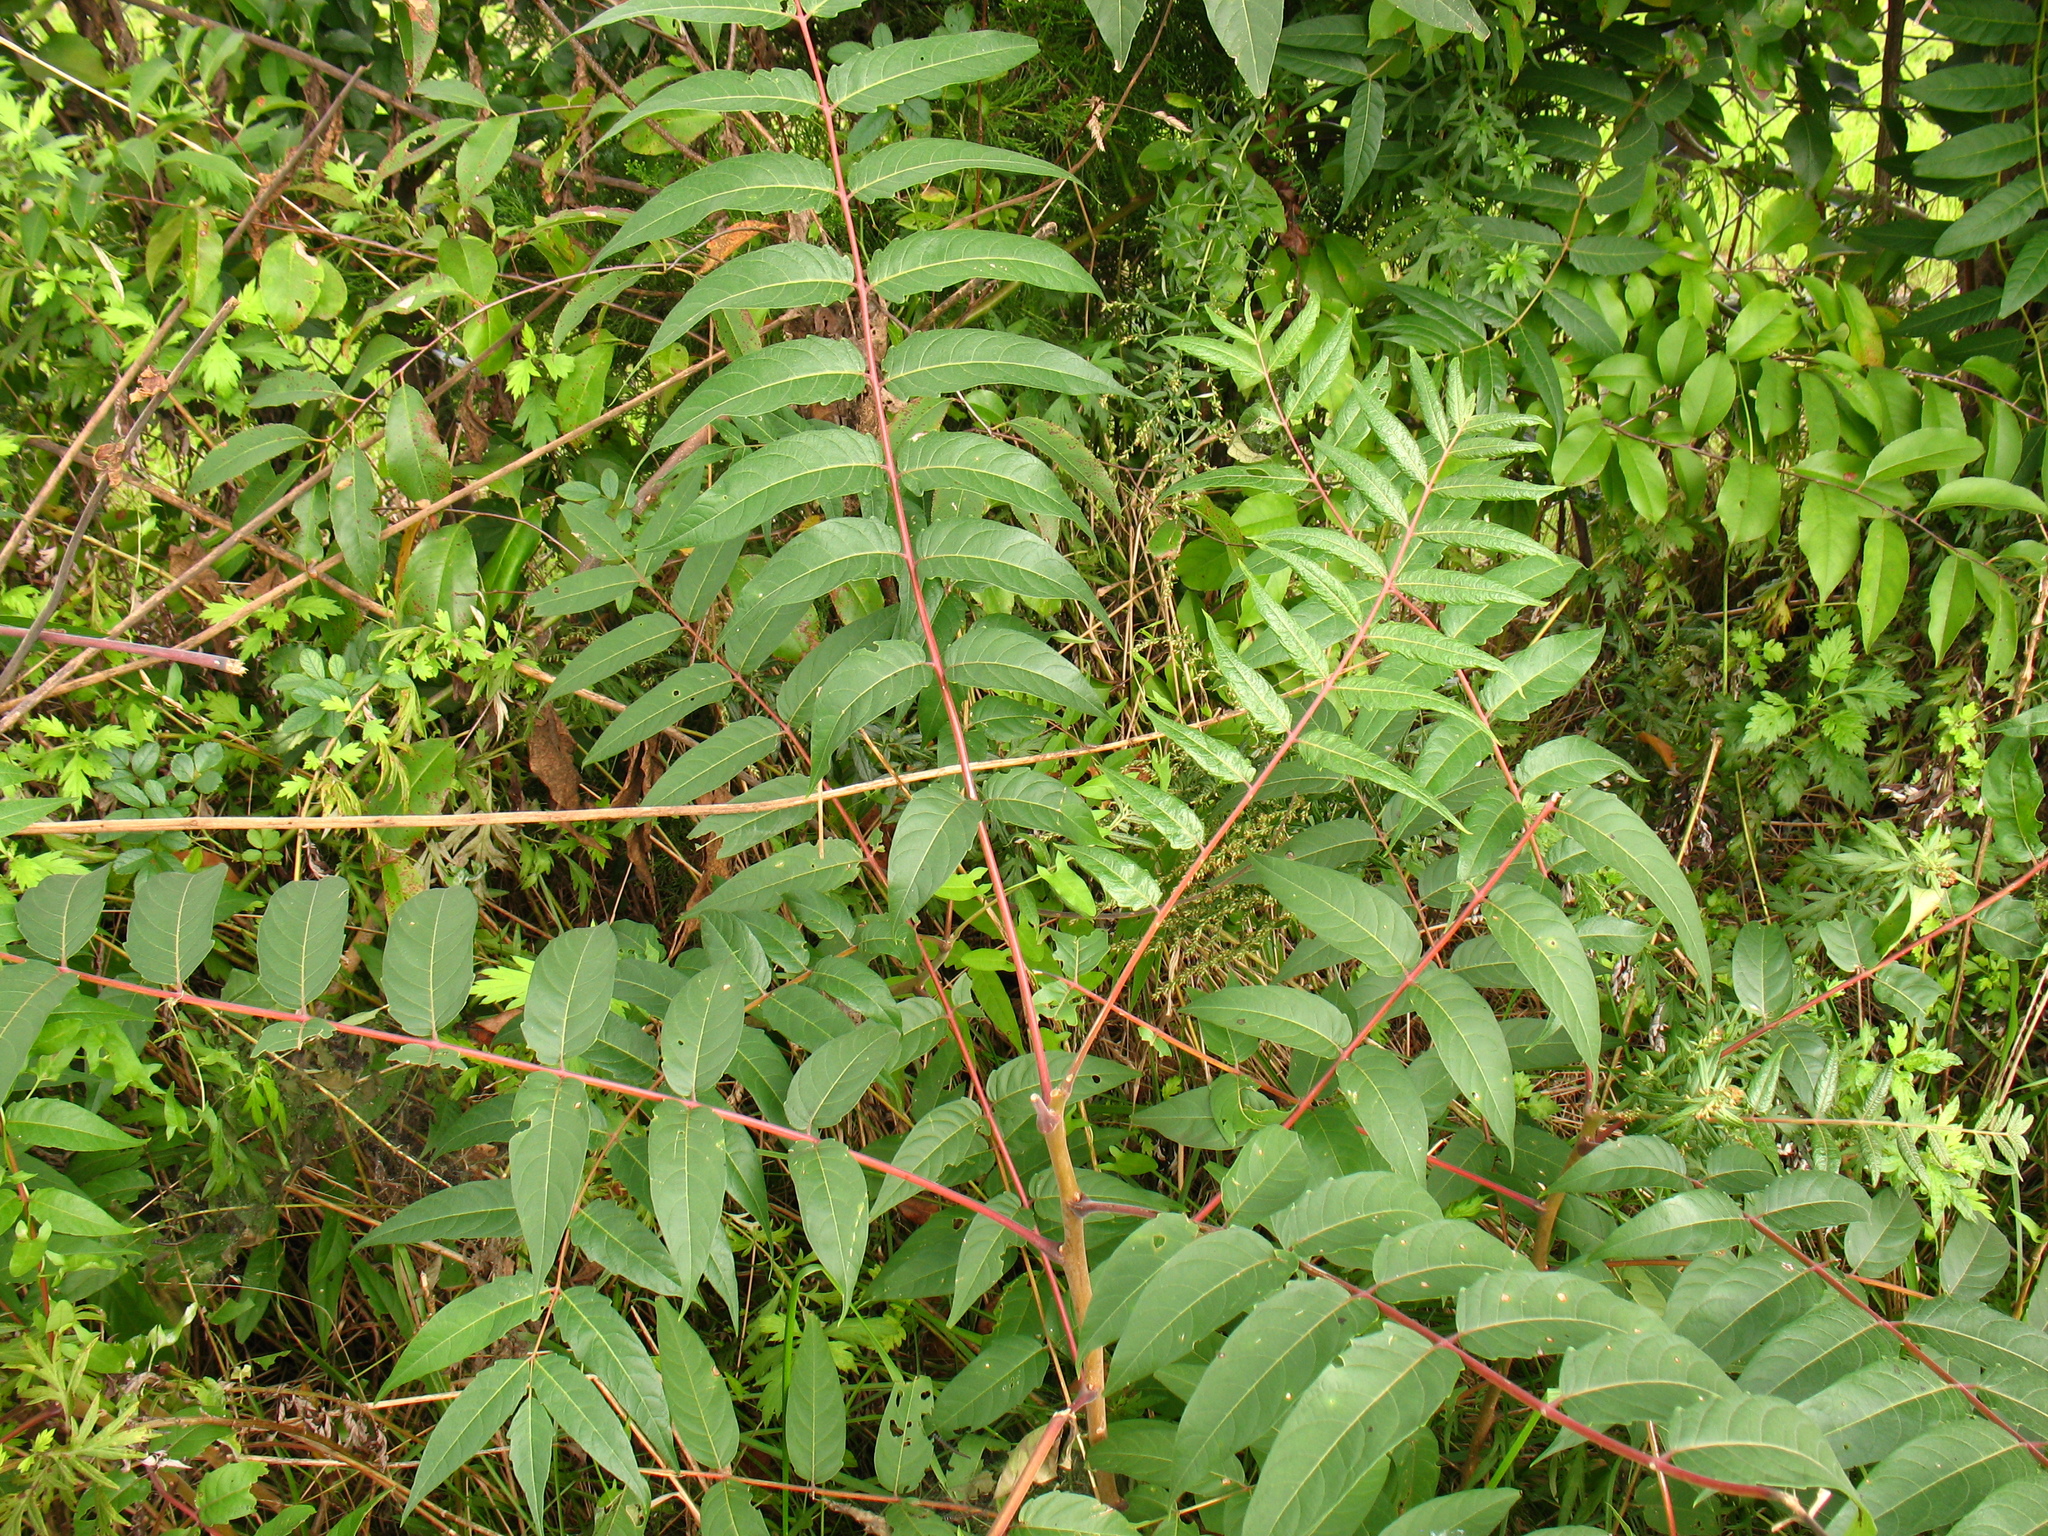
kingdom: Plantae
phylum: Tracheophyta
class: Magnoliopsida
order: Sapindales
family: Simaroubaceae
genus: Ailanthus
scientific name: Ailanthus altissima
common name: Tree-of-heaven
